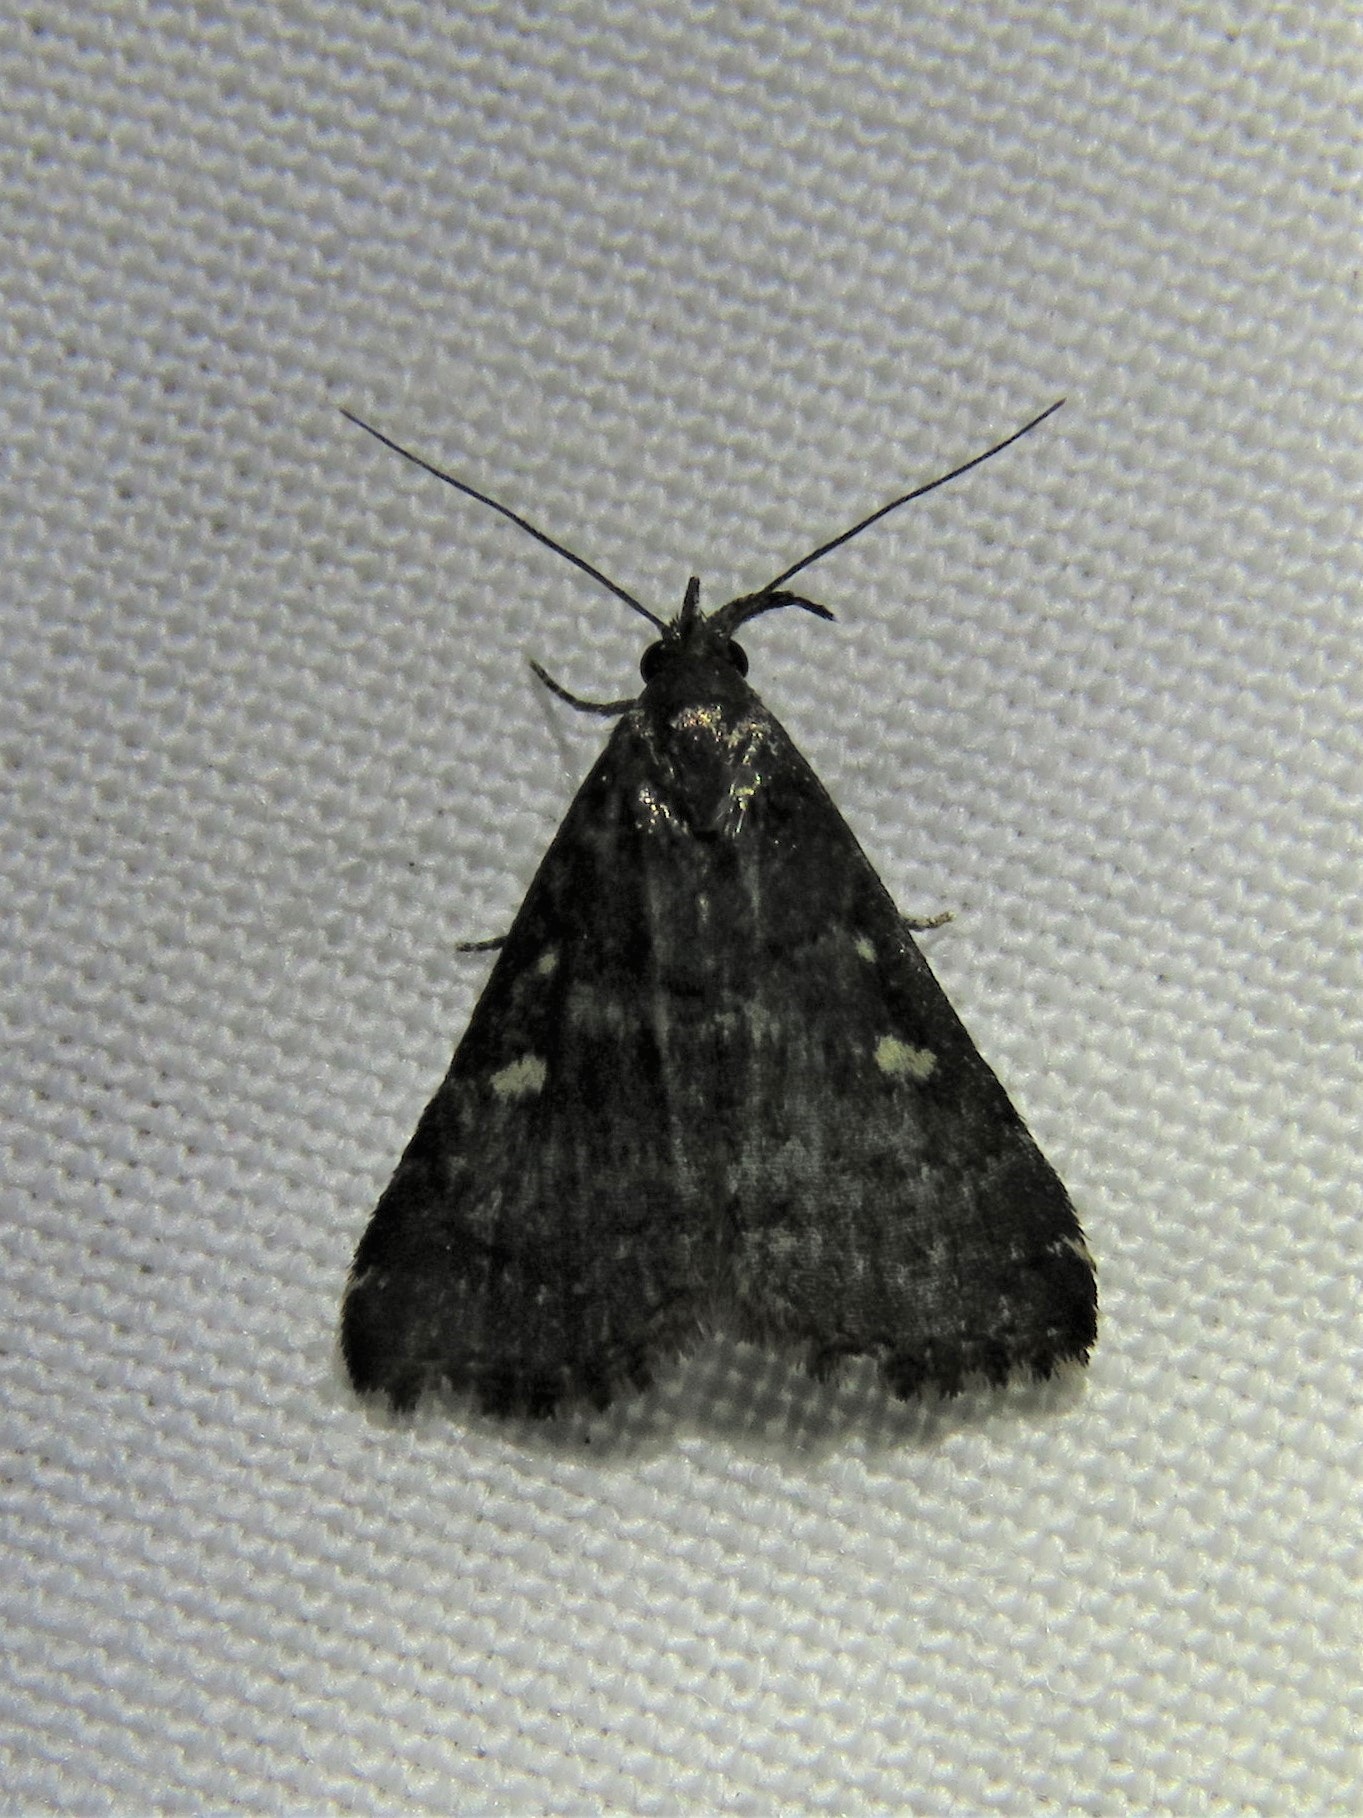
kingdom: Animalia
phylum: Arthropoda
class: Insecta
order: Lepidoptera
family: Erebidae
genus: Tetanolita
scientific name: Tetanolita mynesalis
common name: Smoky tetanolita moth
